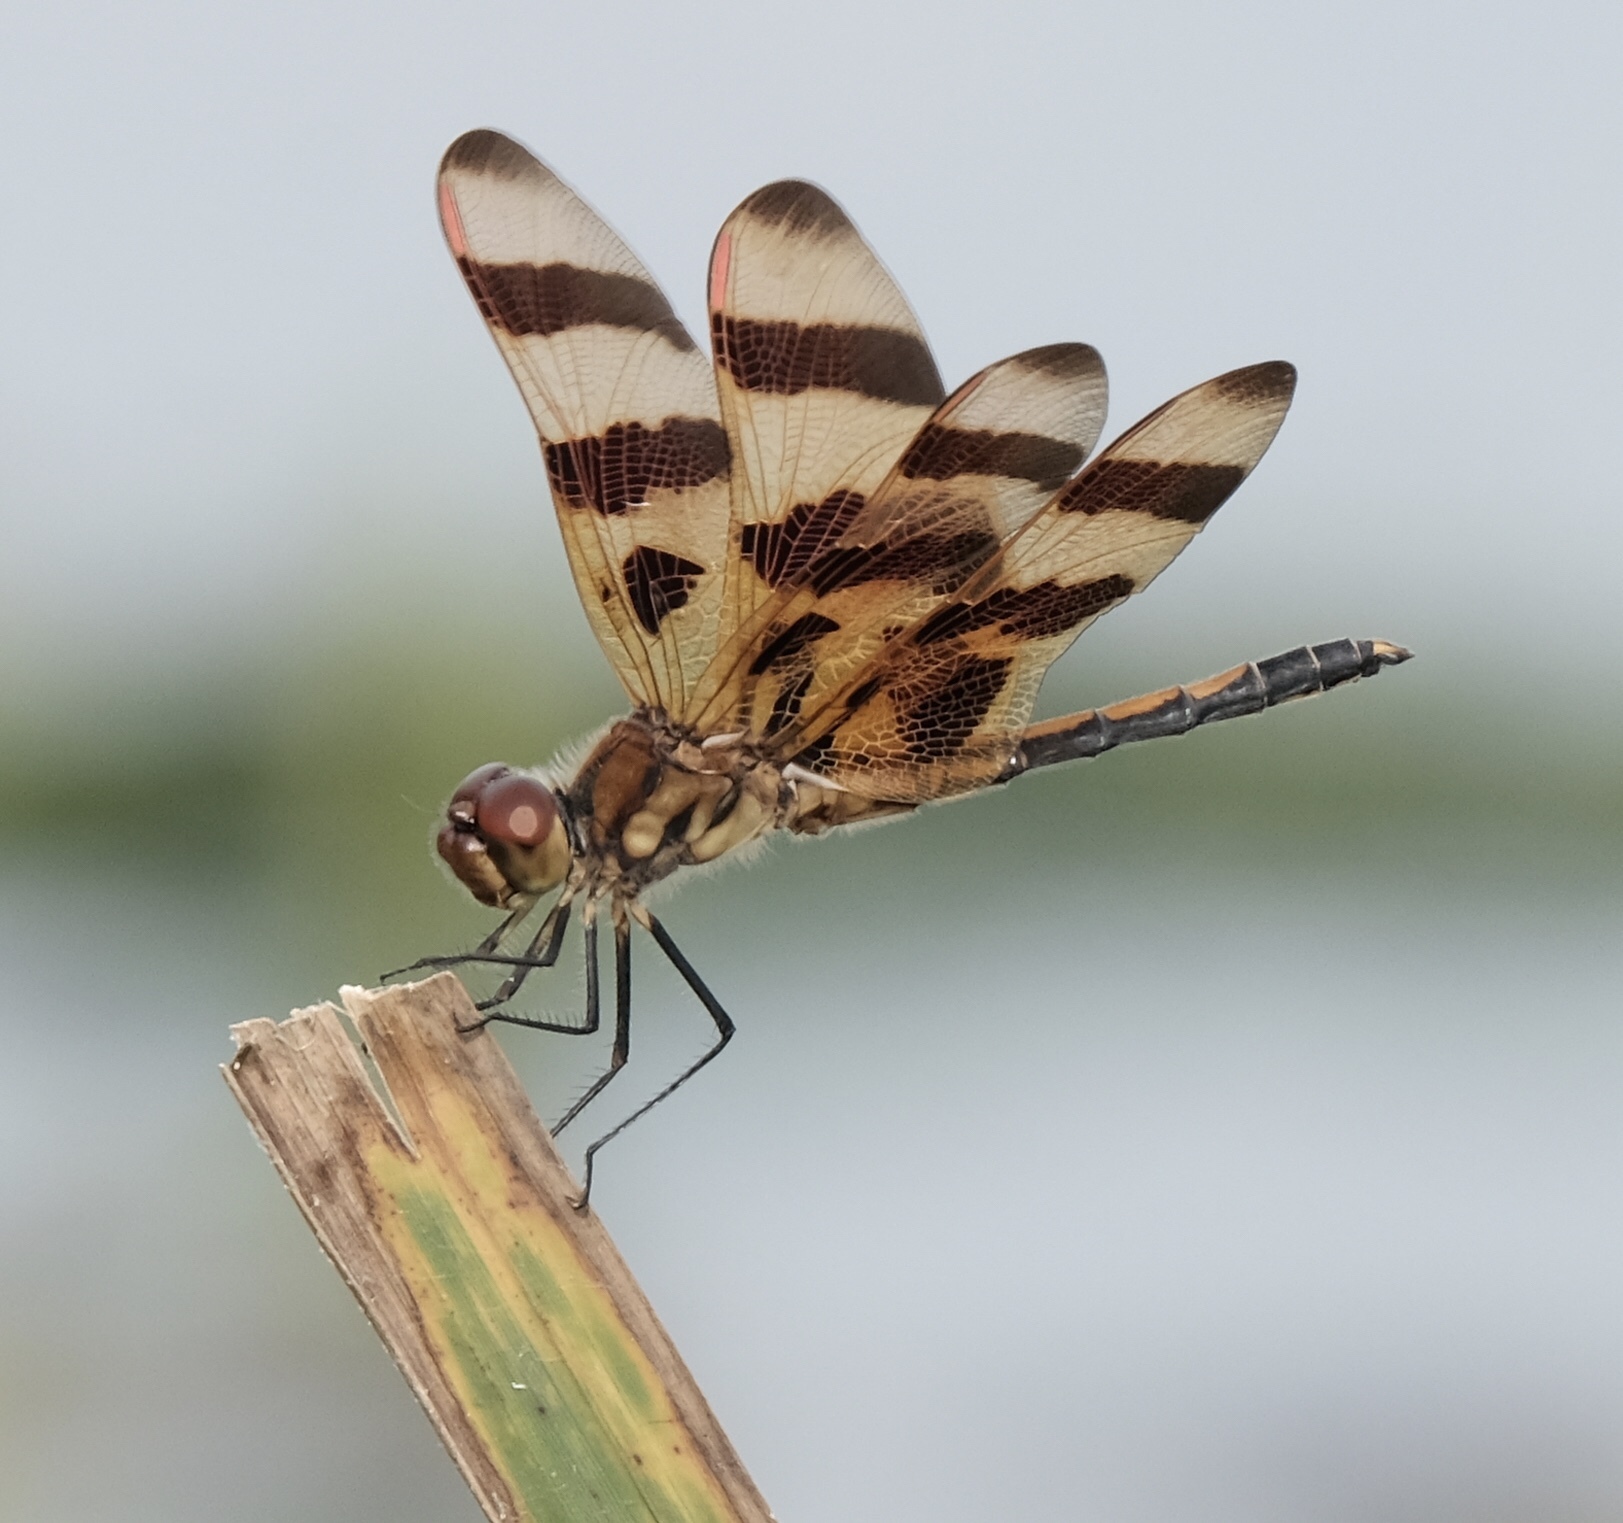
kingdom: Animalia
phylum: Arthropoda
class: Insecta
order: Odonata
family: Libellulidae
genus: Celithemis
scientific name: Celithemis eponina
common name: Halloween pennant
